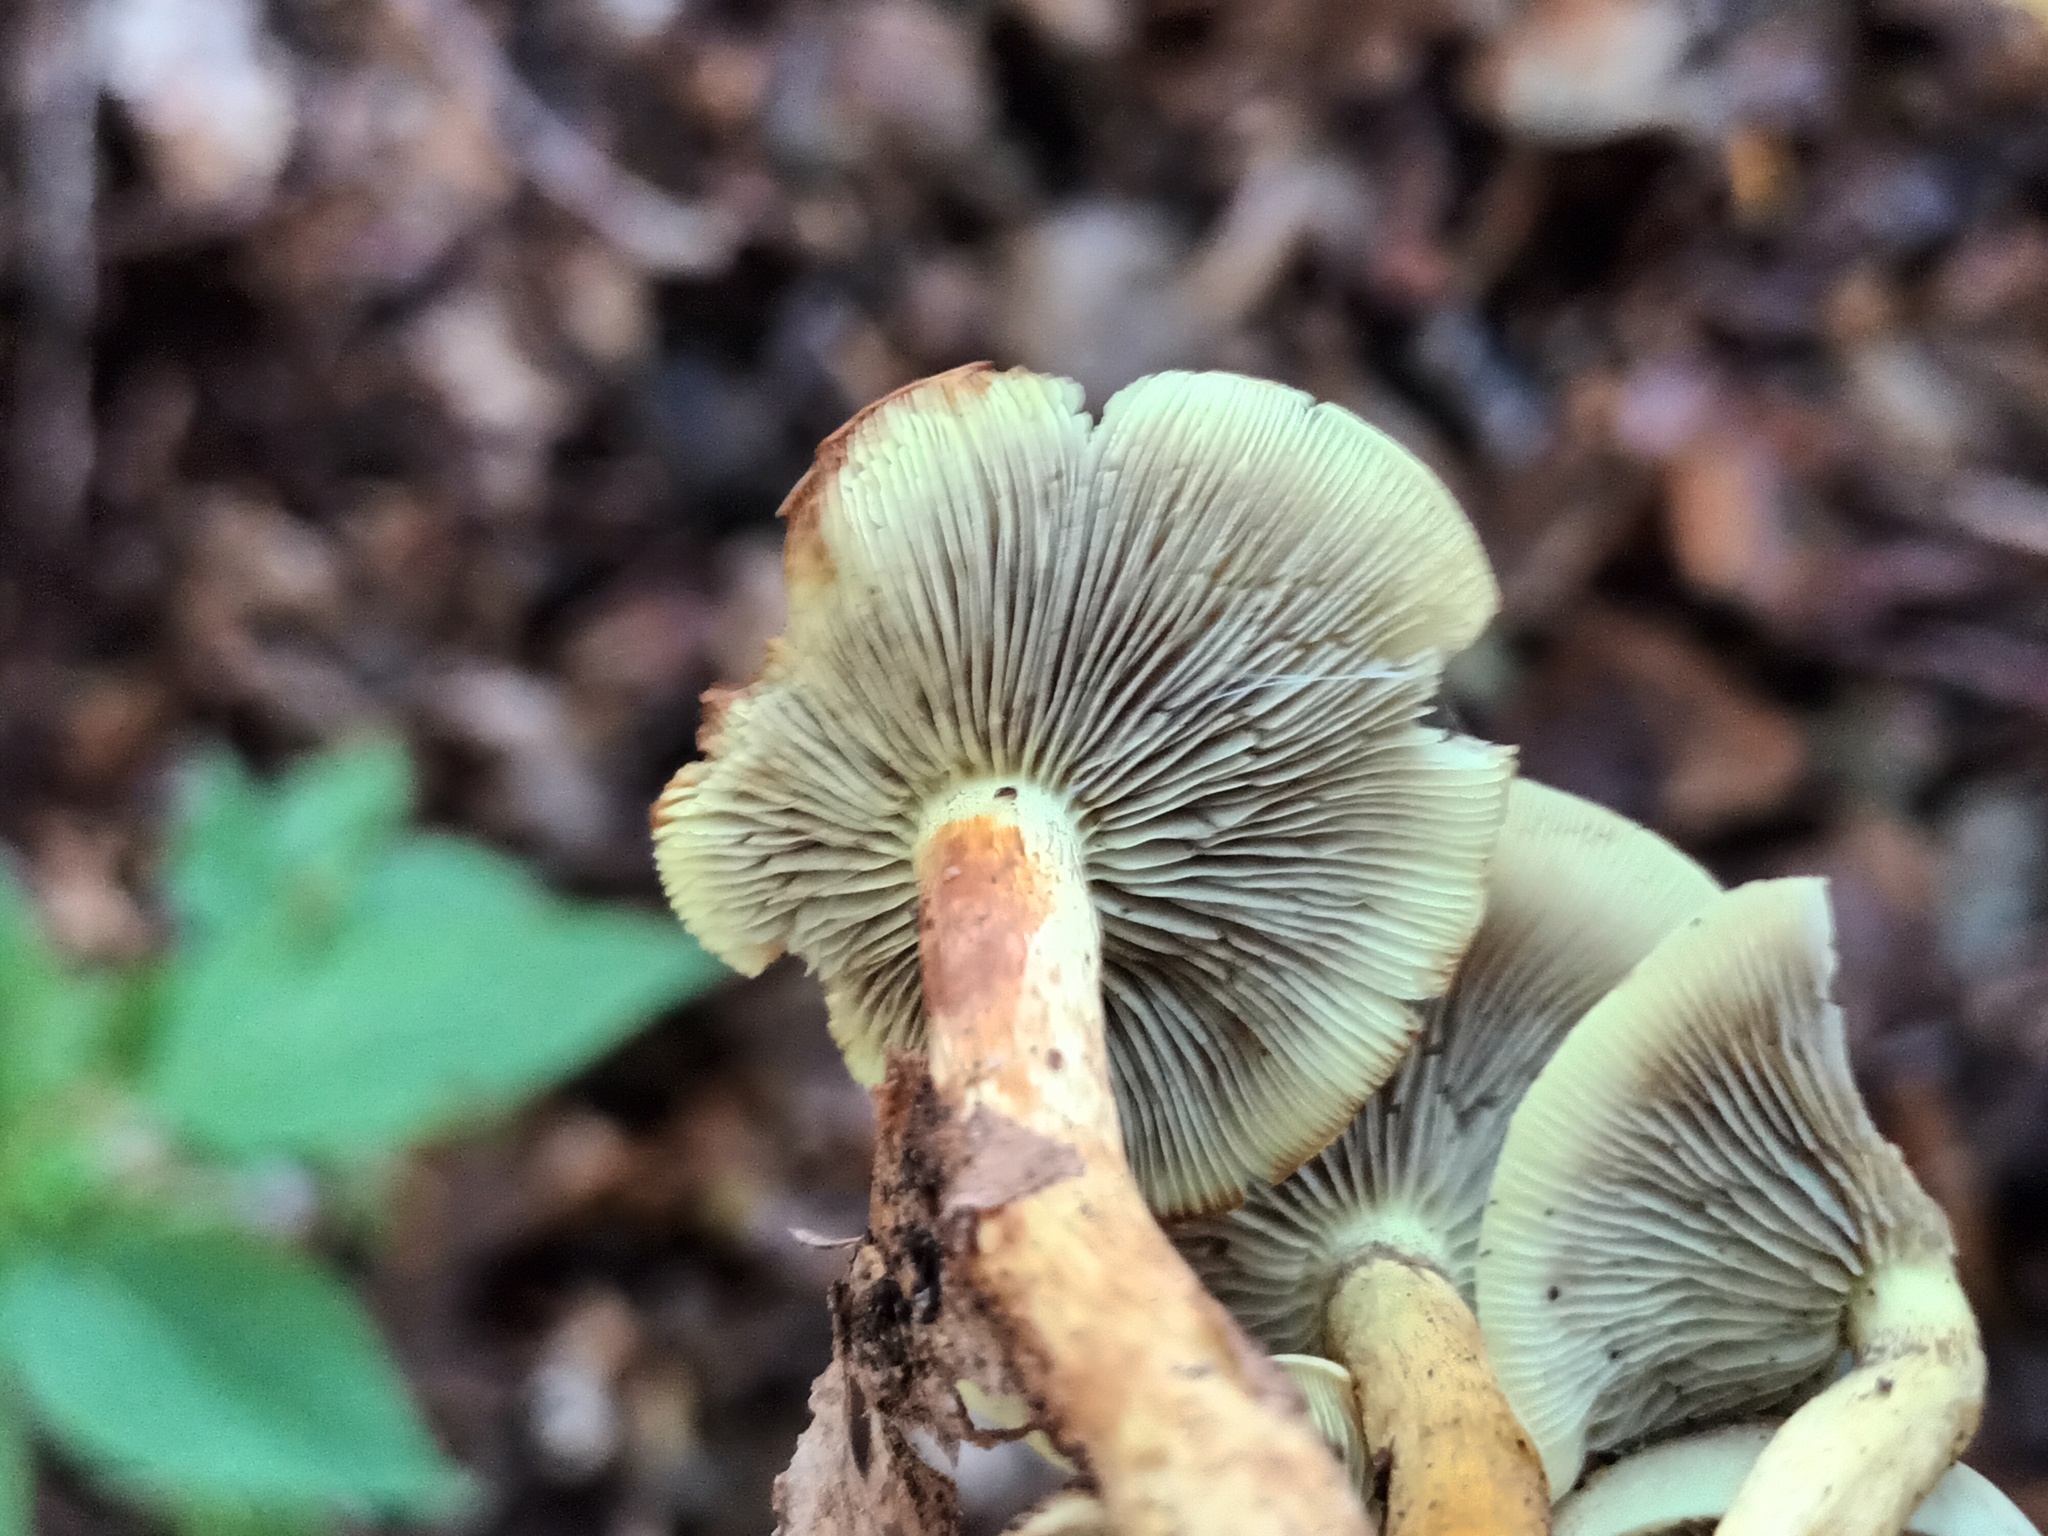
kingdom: Fungi
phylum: Basidiomycota
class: Agaricomycetes
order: Agaricales
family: Strophariaceae
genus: Hypholoma
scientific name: Hypholoma fasciculare
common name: Sulphur tuft
